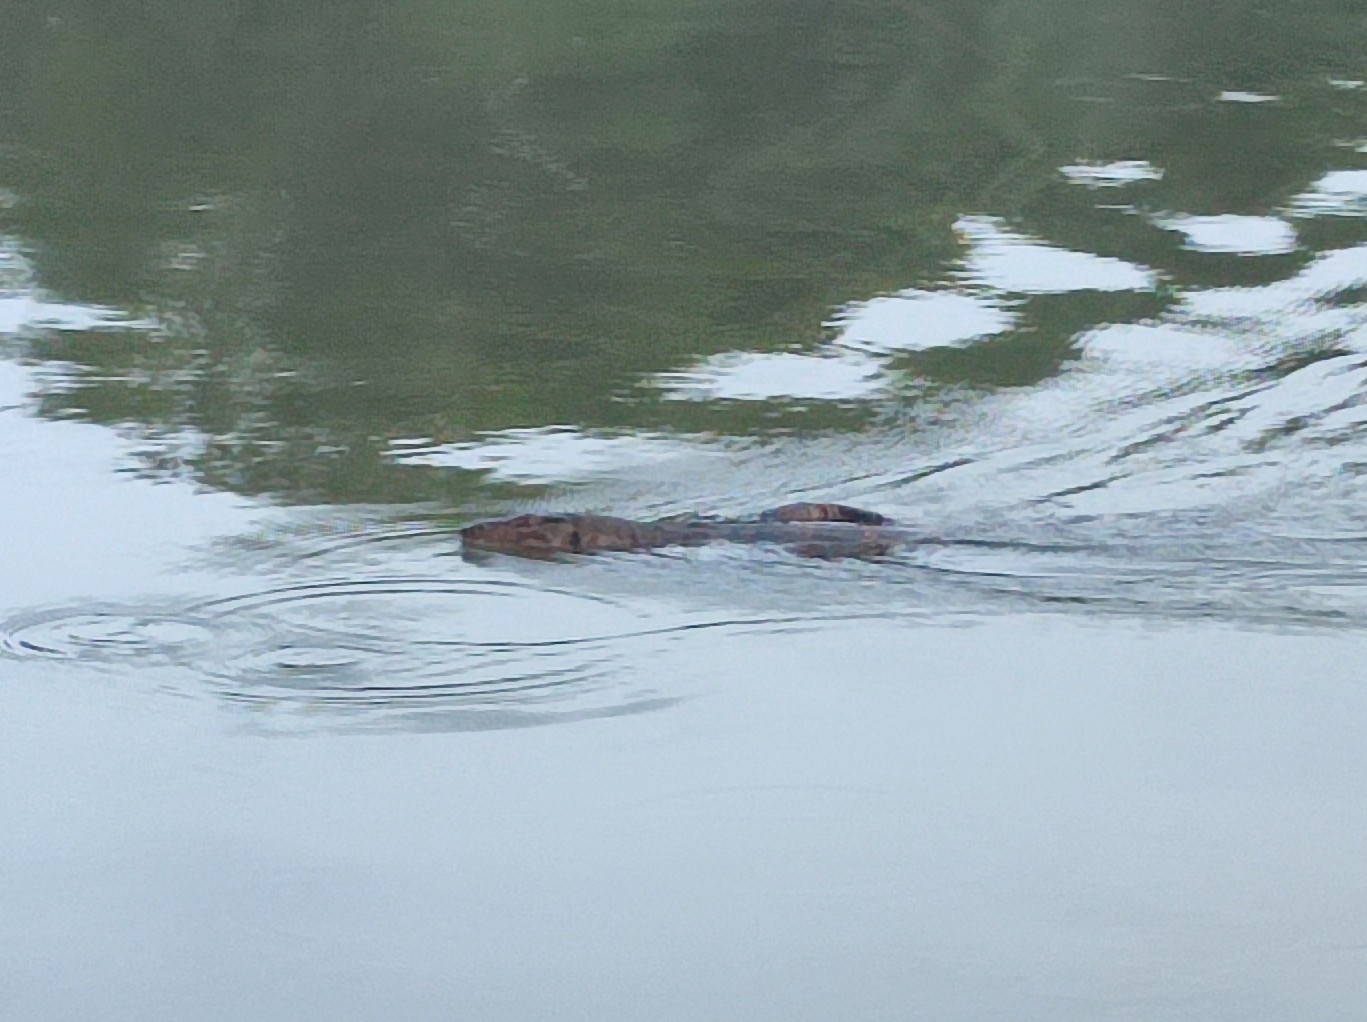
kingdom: Animalia
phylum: Chordata
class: Squamata
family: Varanidae
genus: Varanus
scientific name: Varanus salvator
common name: Common water monitor
